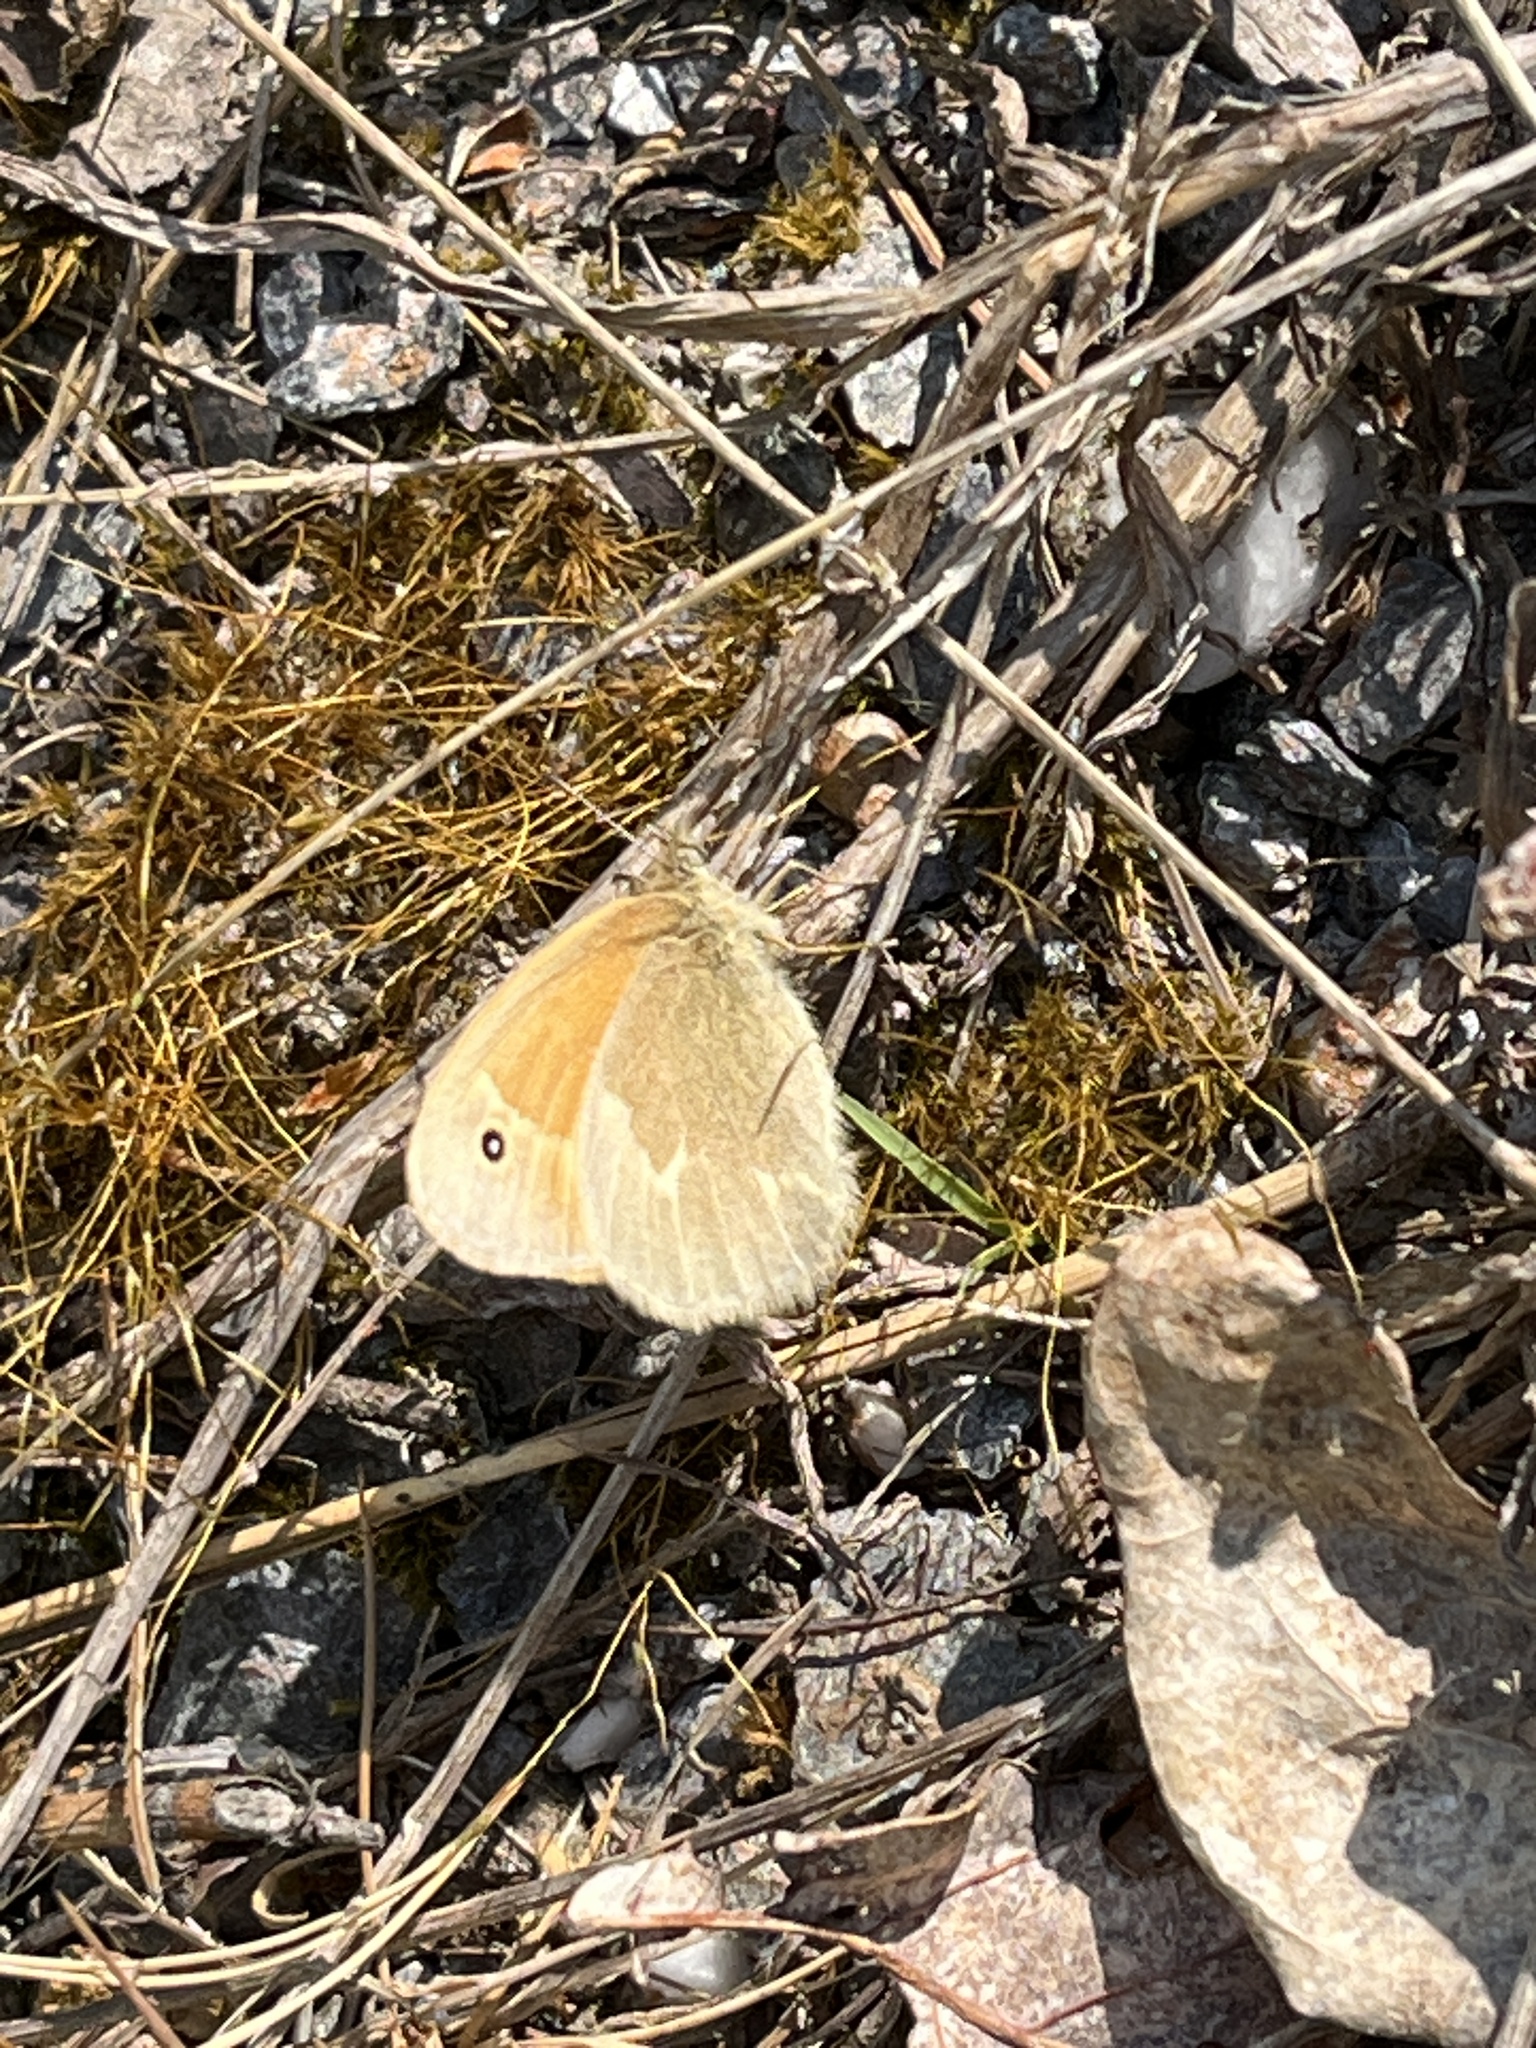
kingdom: Animalia
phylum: Arthropoda
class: Insecta
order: Lepidoptera
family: Nymphalidae
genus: Coenonympha
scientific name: Coenonympha california
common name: Common ringlet
